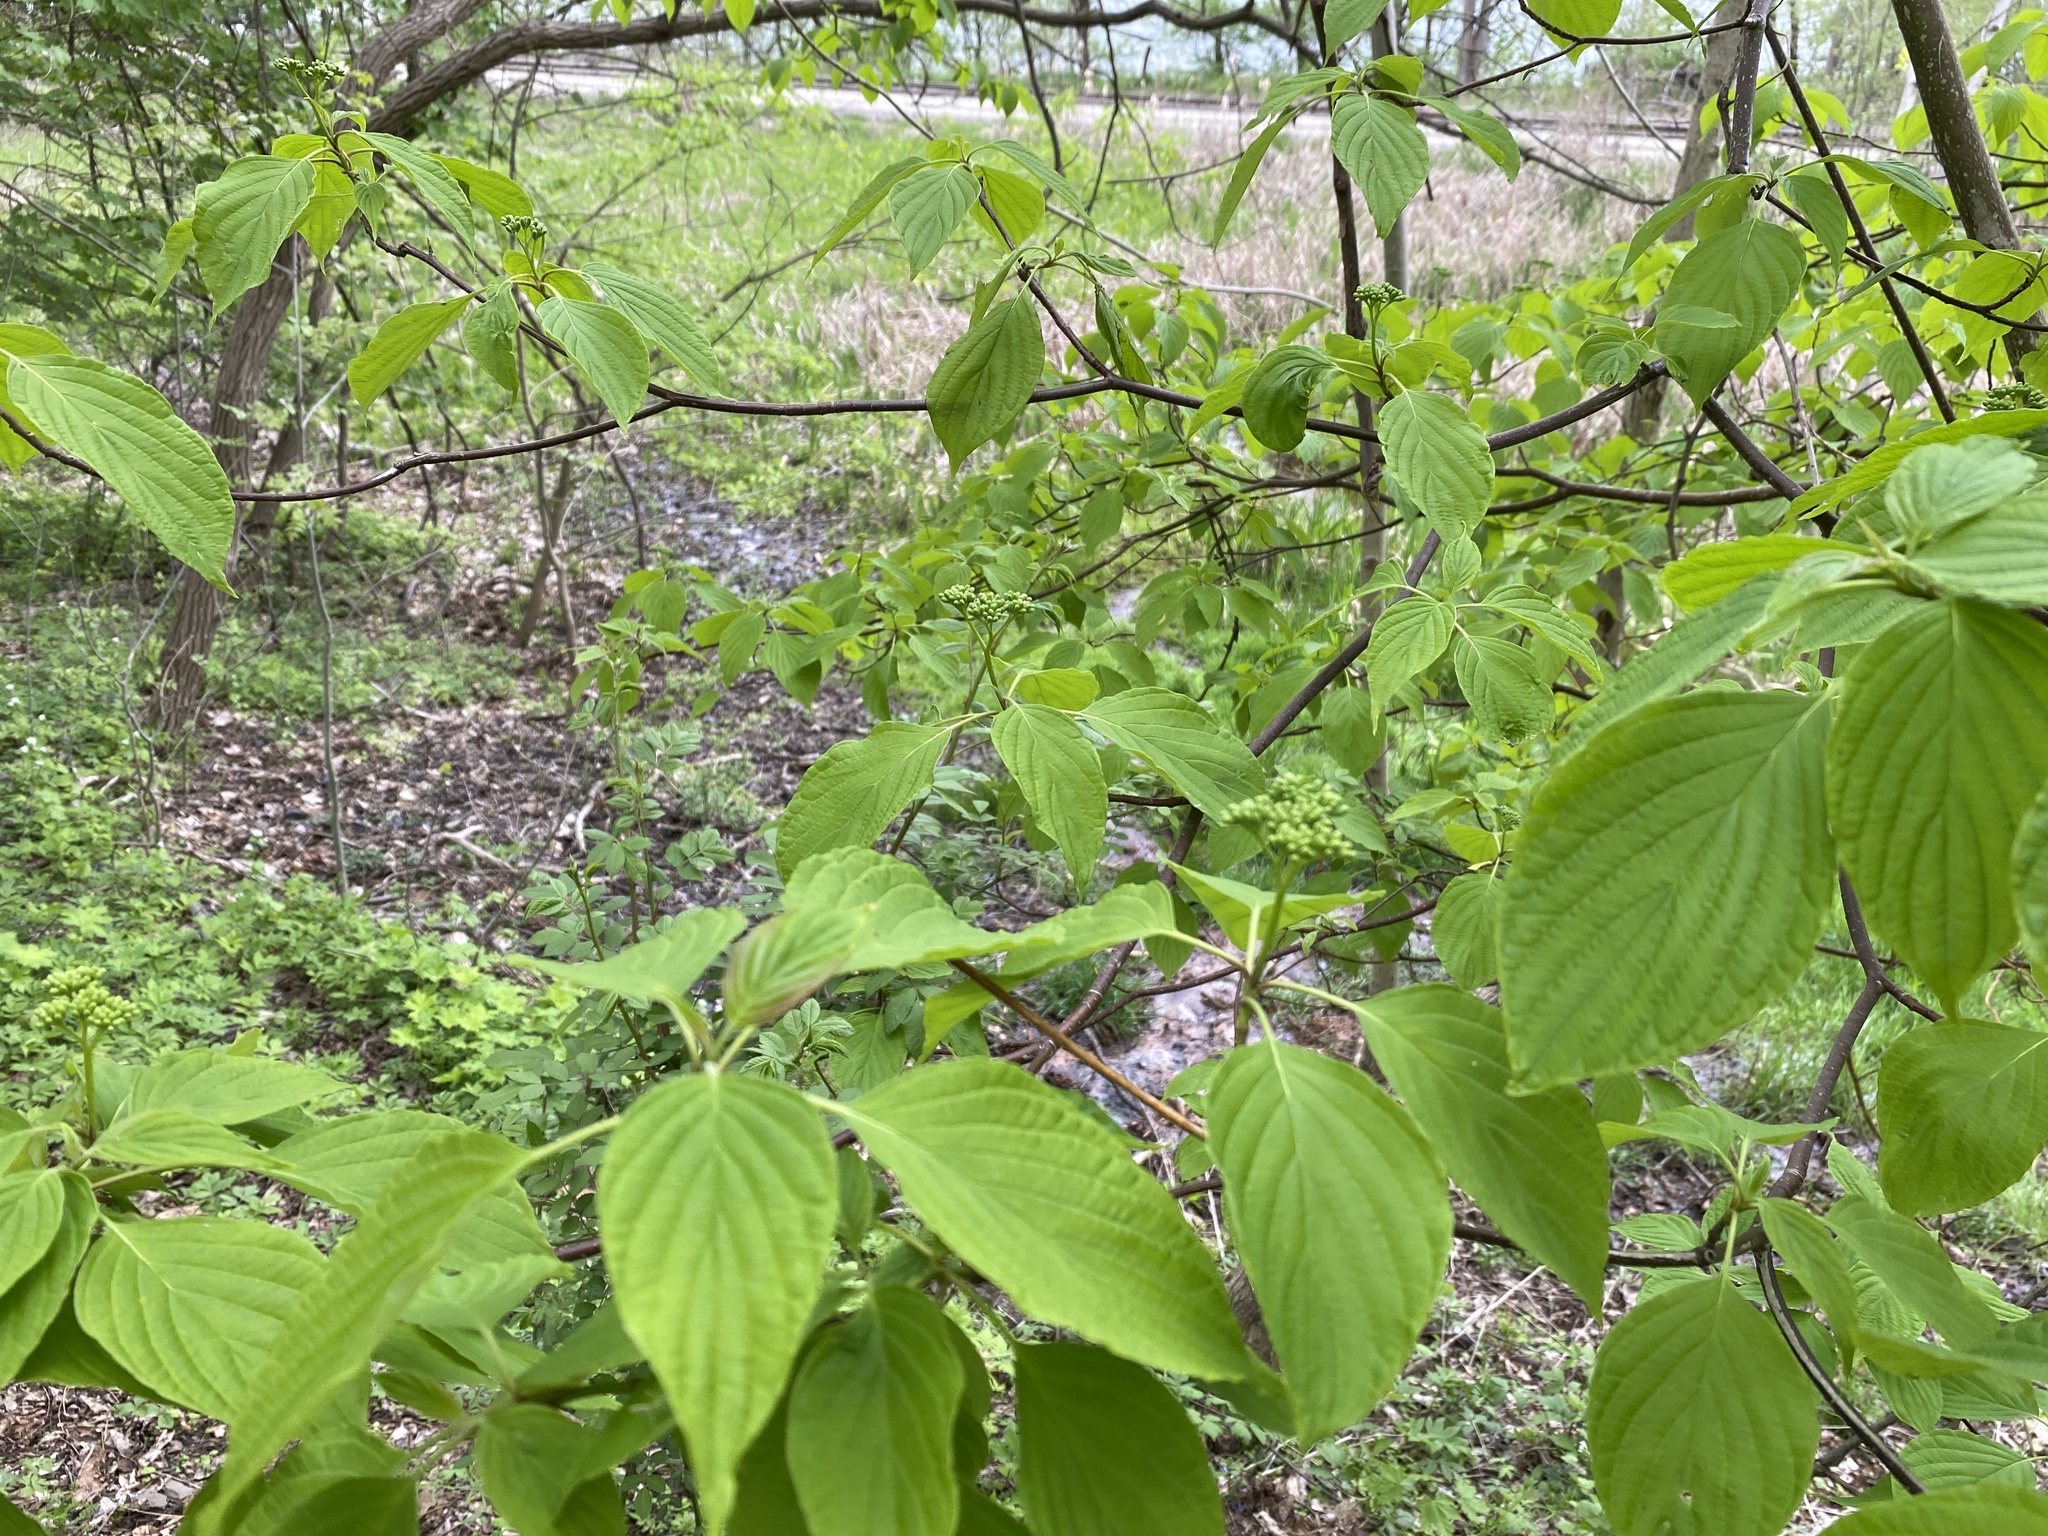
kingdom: Plantae
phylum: Tracheophyta
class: Magnoliopsida
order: Cornales
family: Cornaceae
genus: Cornus
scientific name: Cornus alternifolia
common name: Pagoda dogwood
